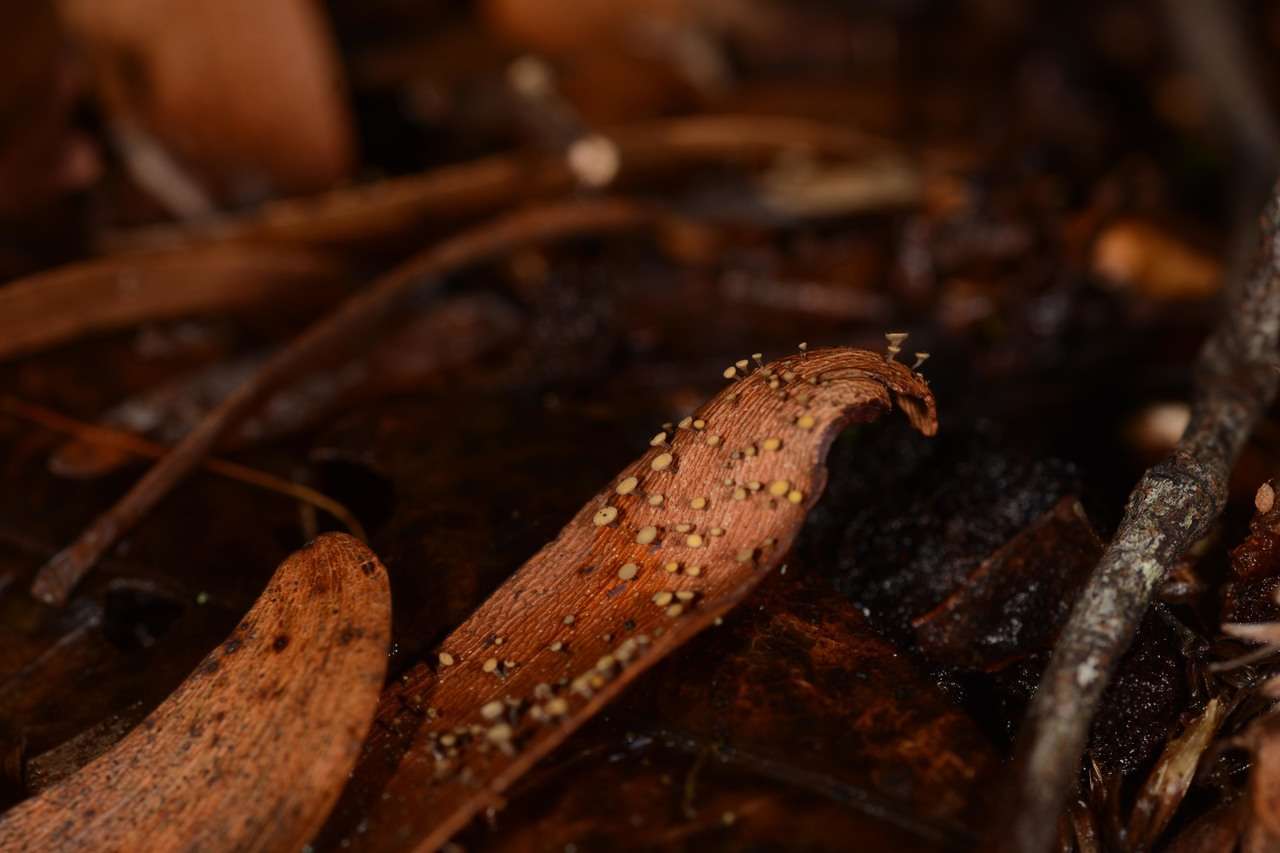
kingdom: Fungi
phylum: Ascomycota
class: Leotiomycetes
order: Helotiales
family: Helotiaceae
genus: Hymenotorrendiella
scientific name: Hymenotorrendiella eucalypti
